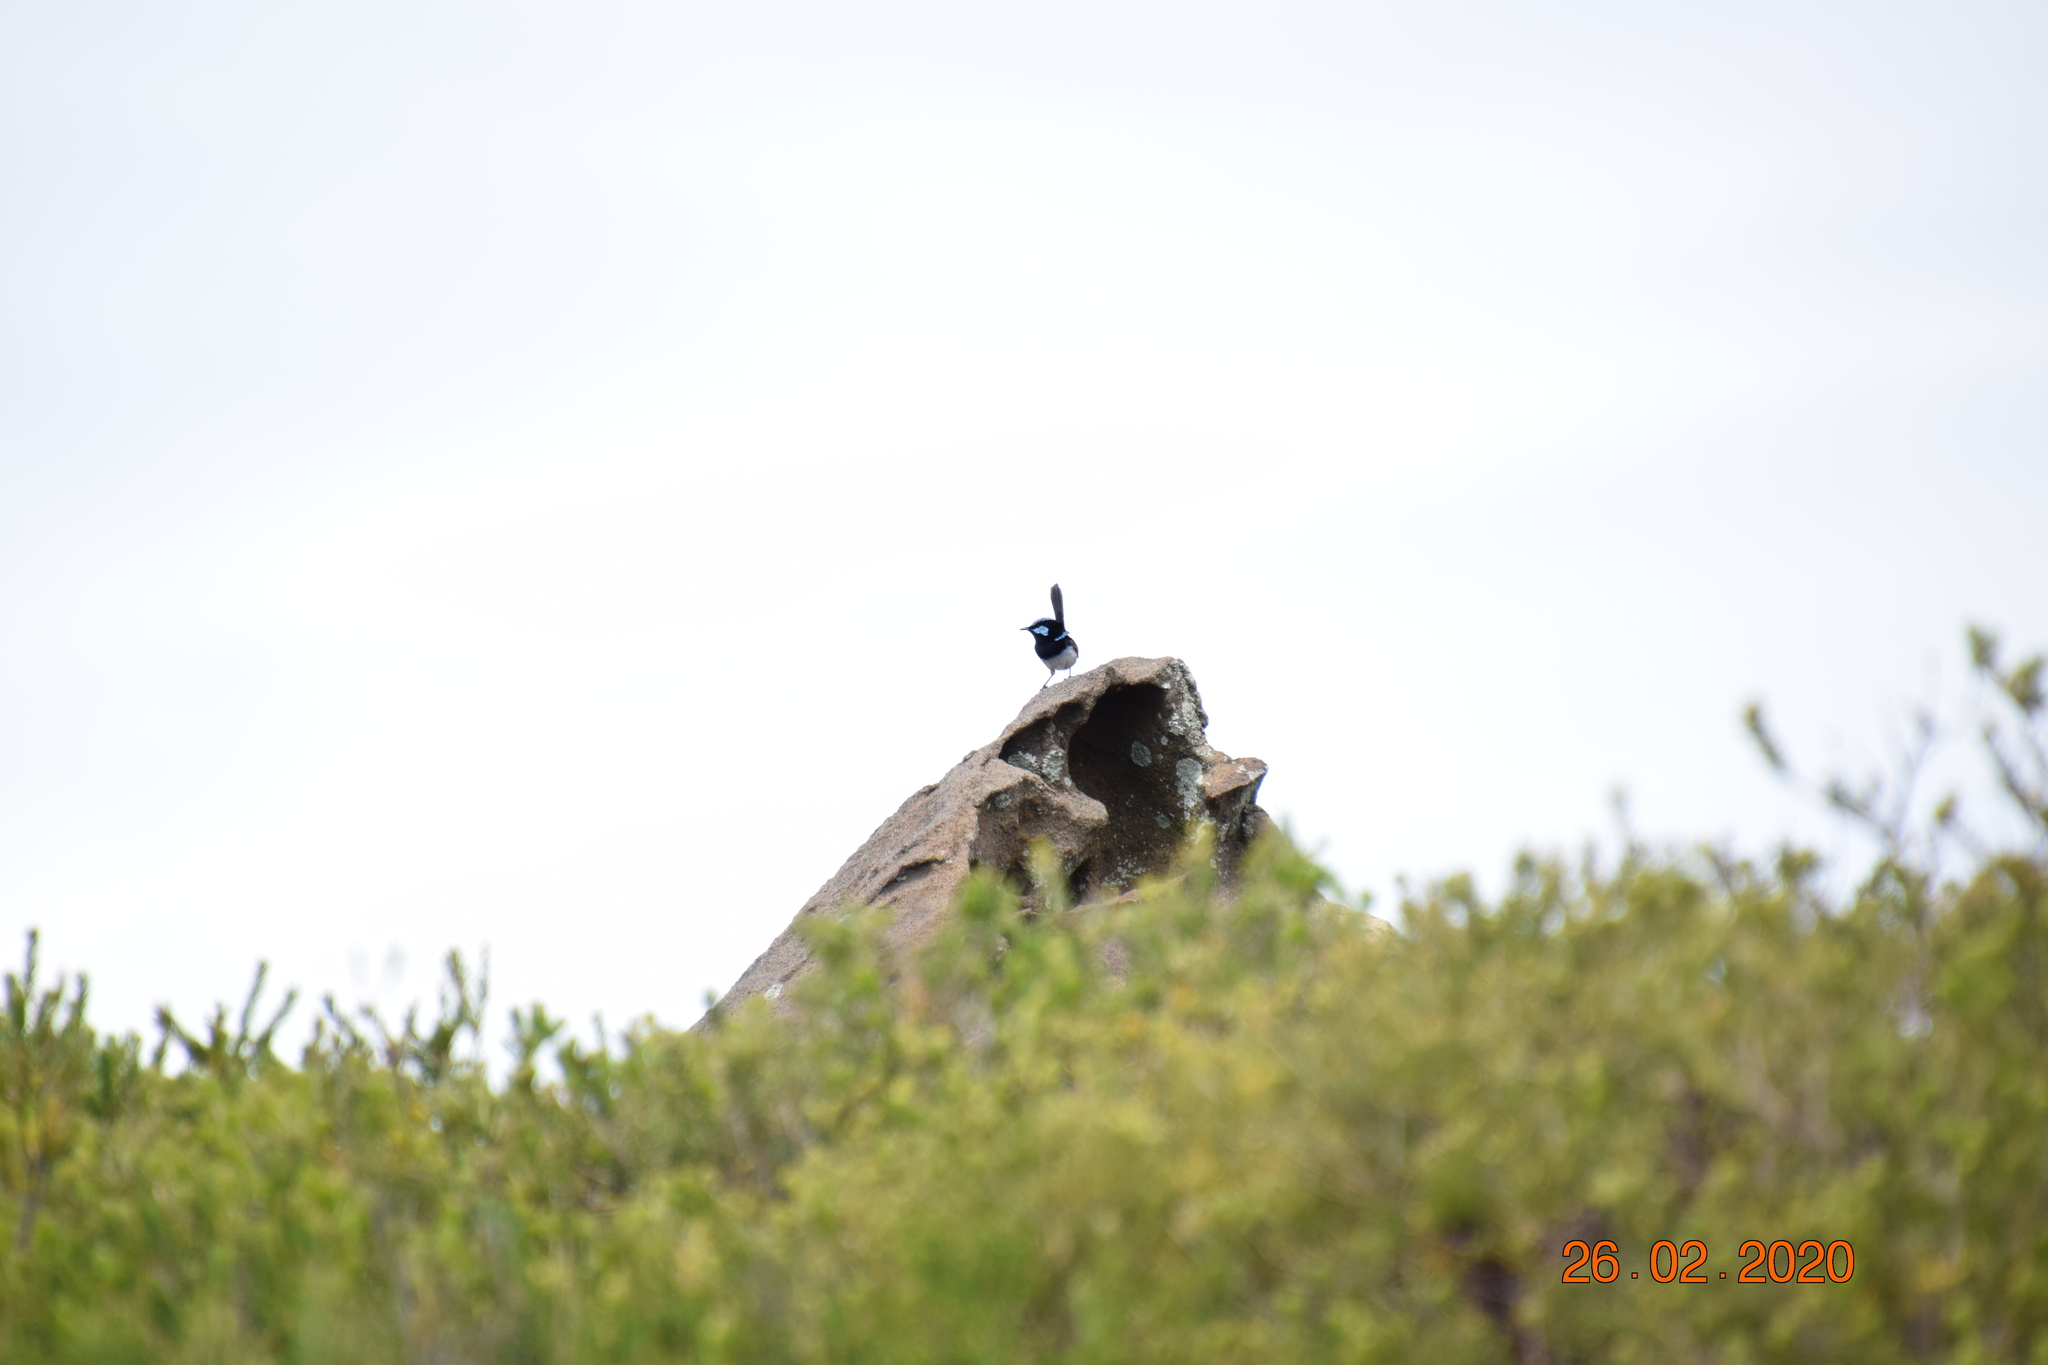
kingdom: Animalia
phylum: Chordata
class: Aves
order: Passeriformes
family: Maluridae
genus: Malurus
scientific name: Malurus cyaneus
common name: Superb fairywren
